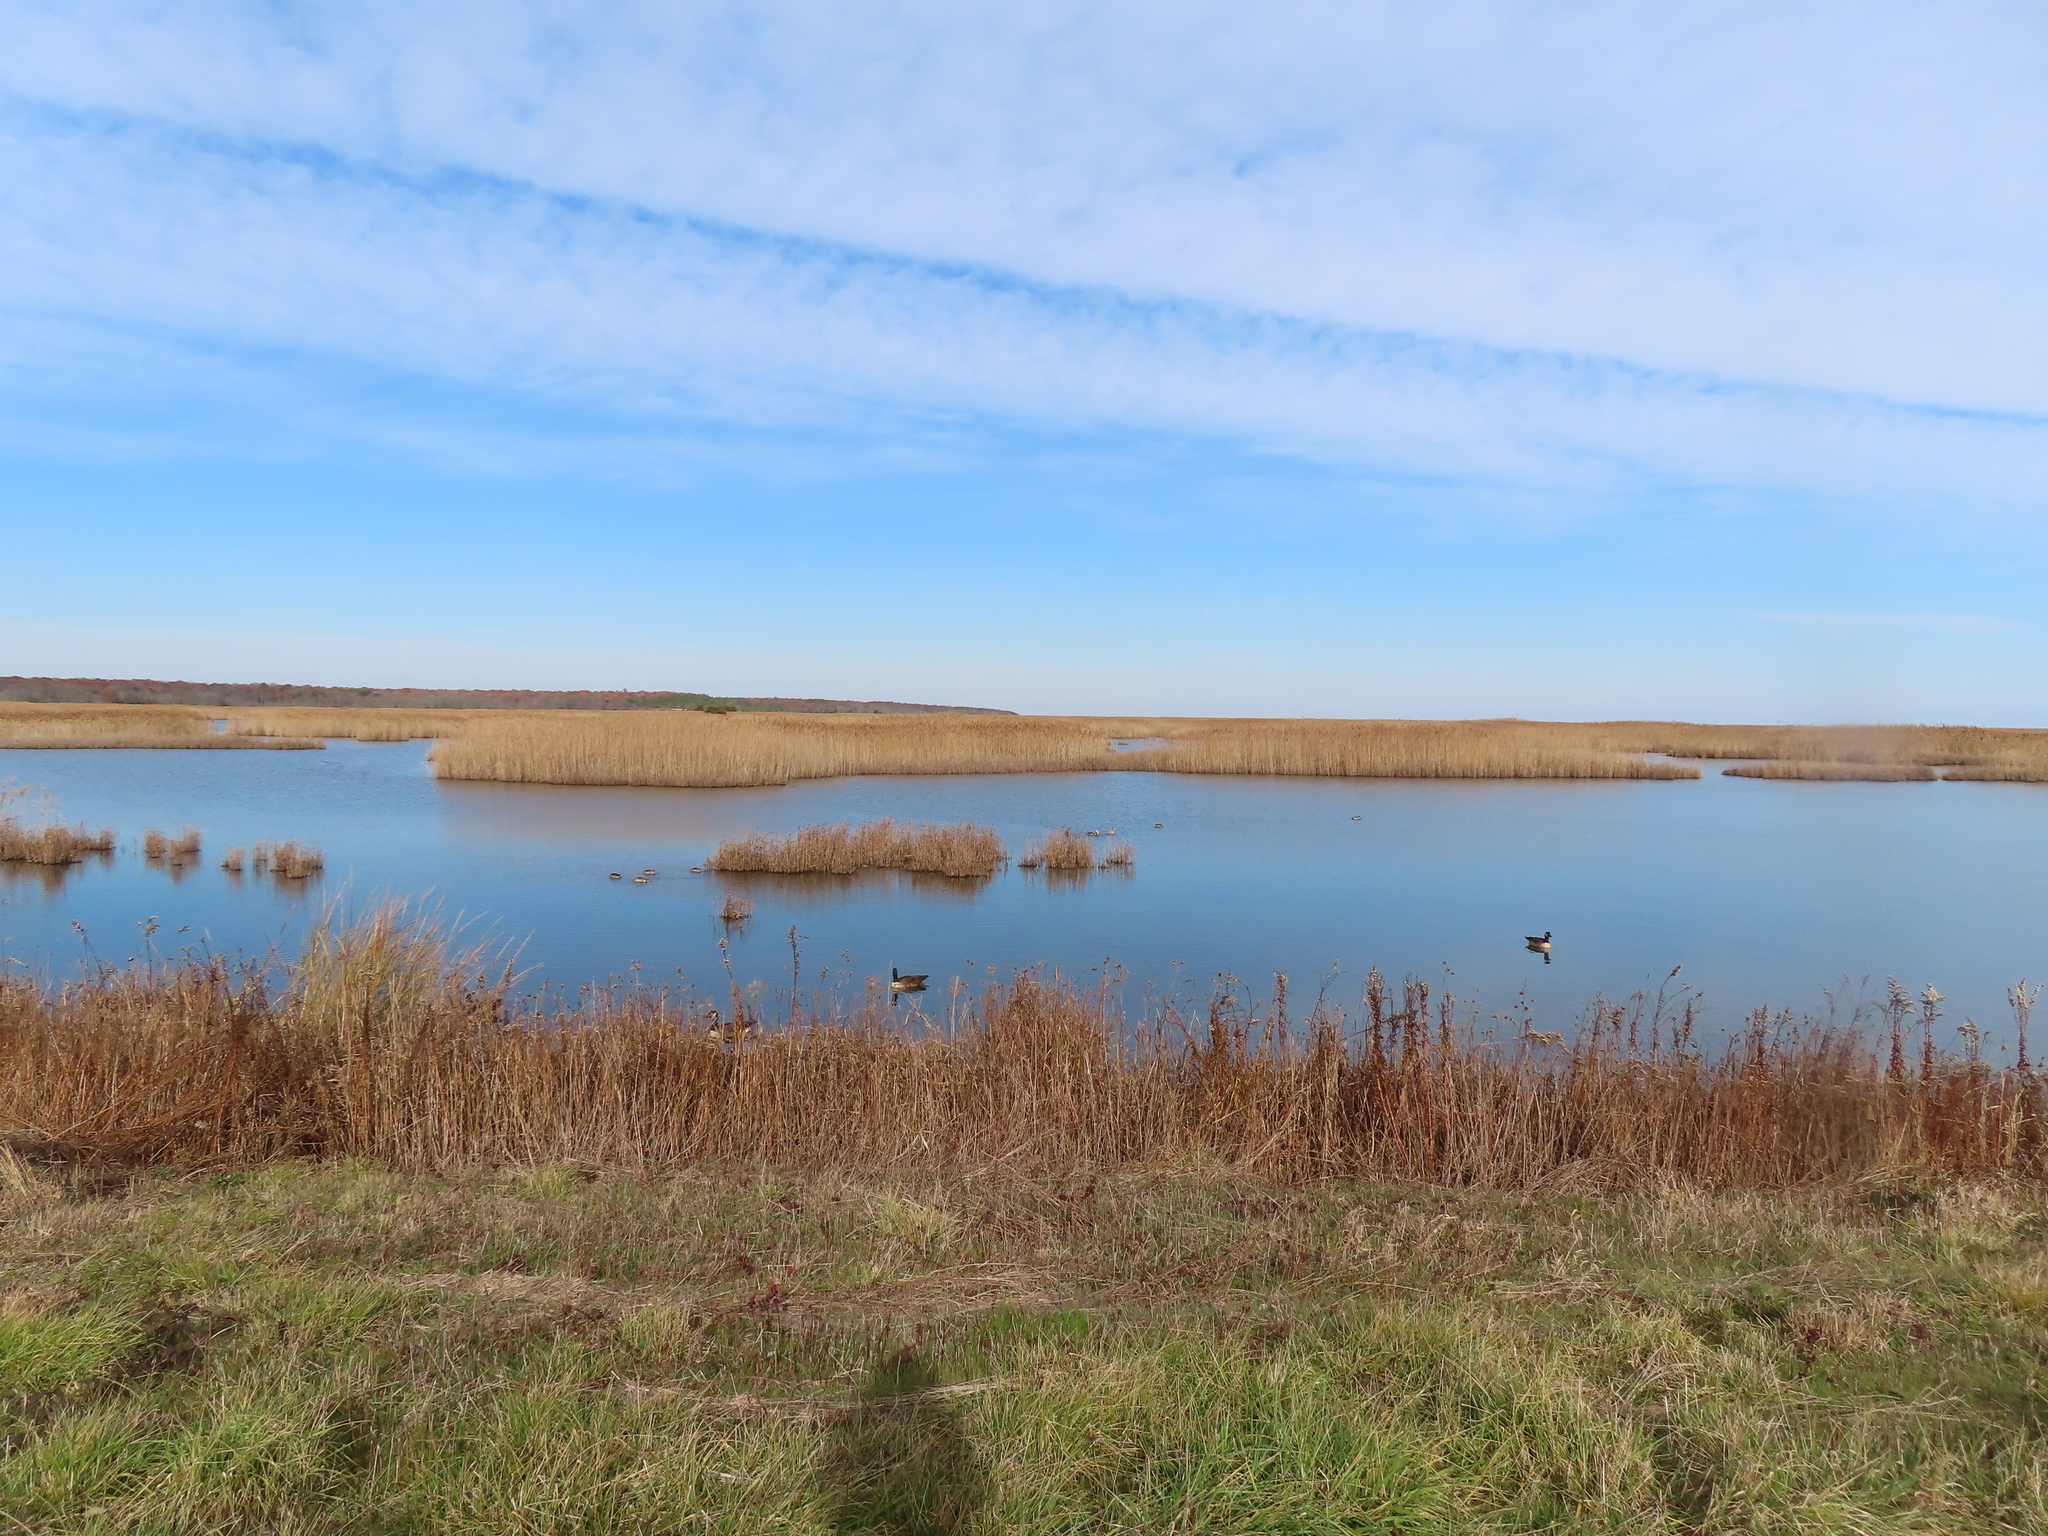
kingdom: Animalia
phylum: Chordata
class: Aves
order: Anseriformes
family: Anatidae
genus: Branta
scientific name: Branta canadensis
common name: Canada goose
